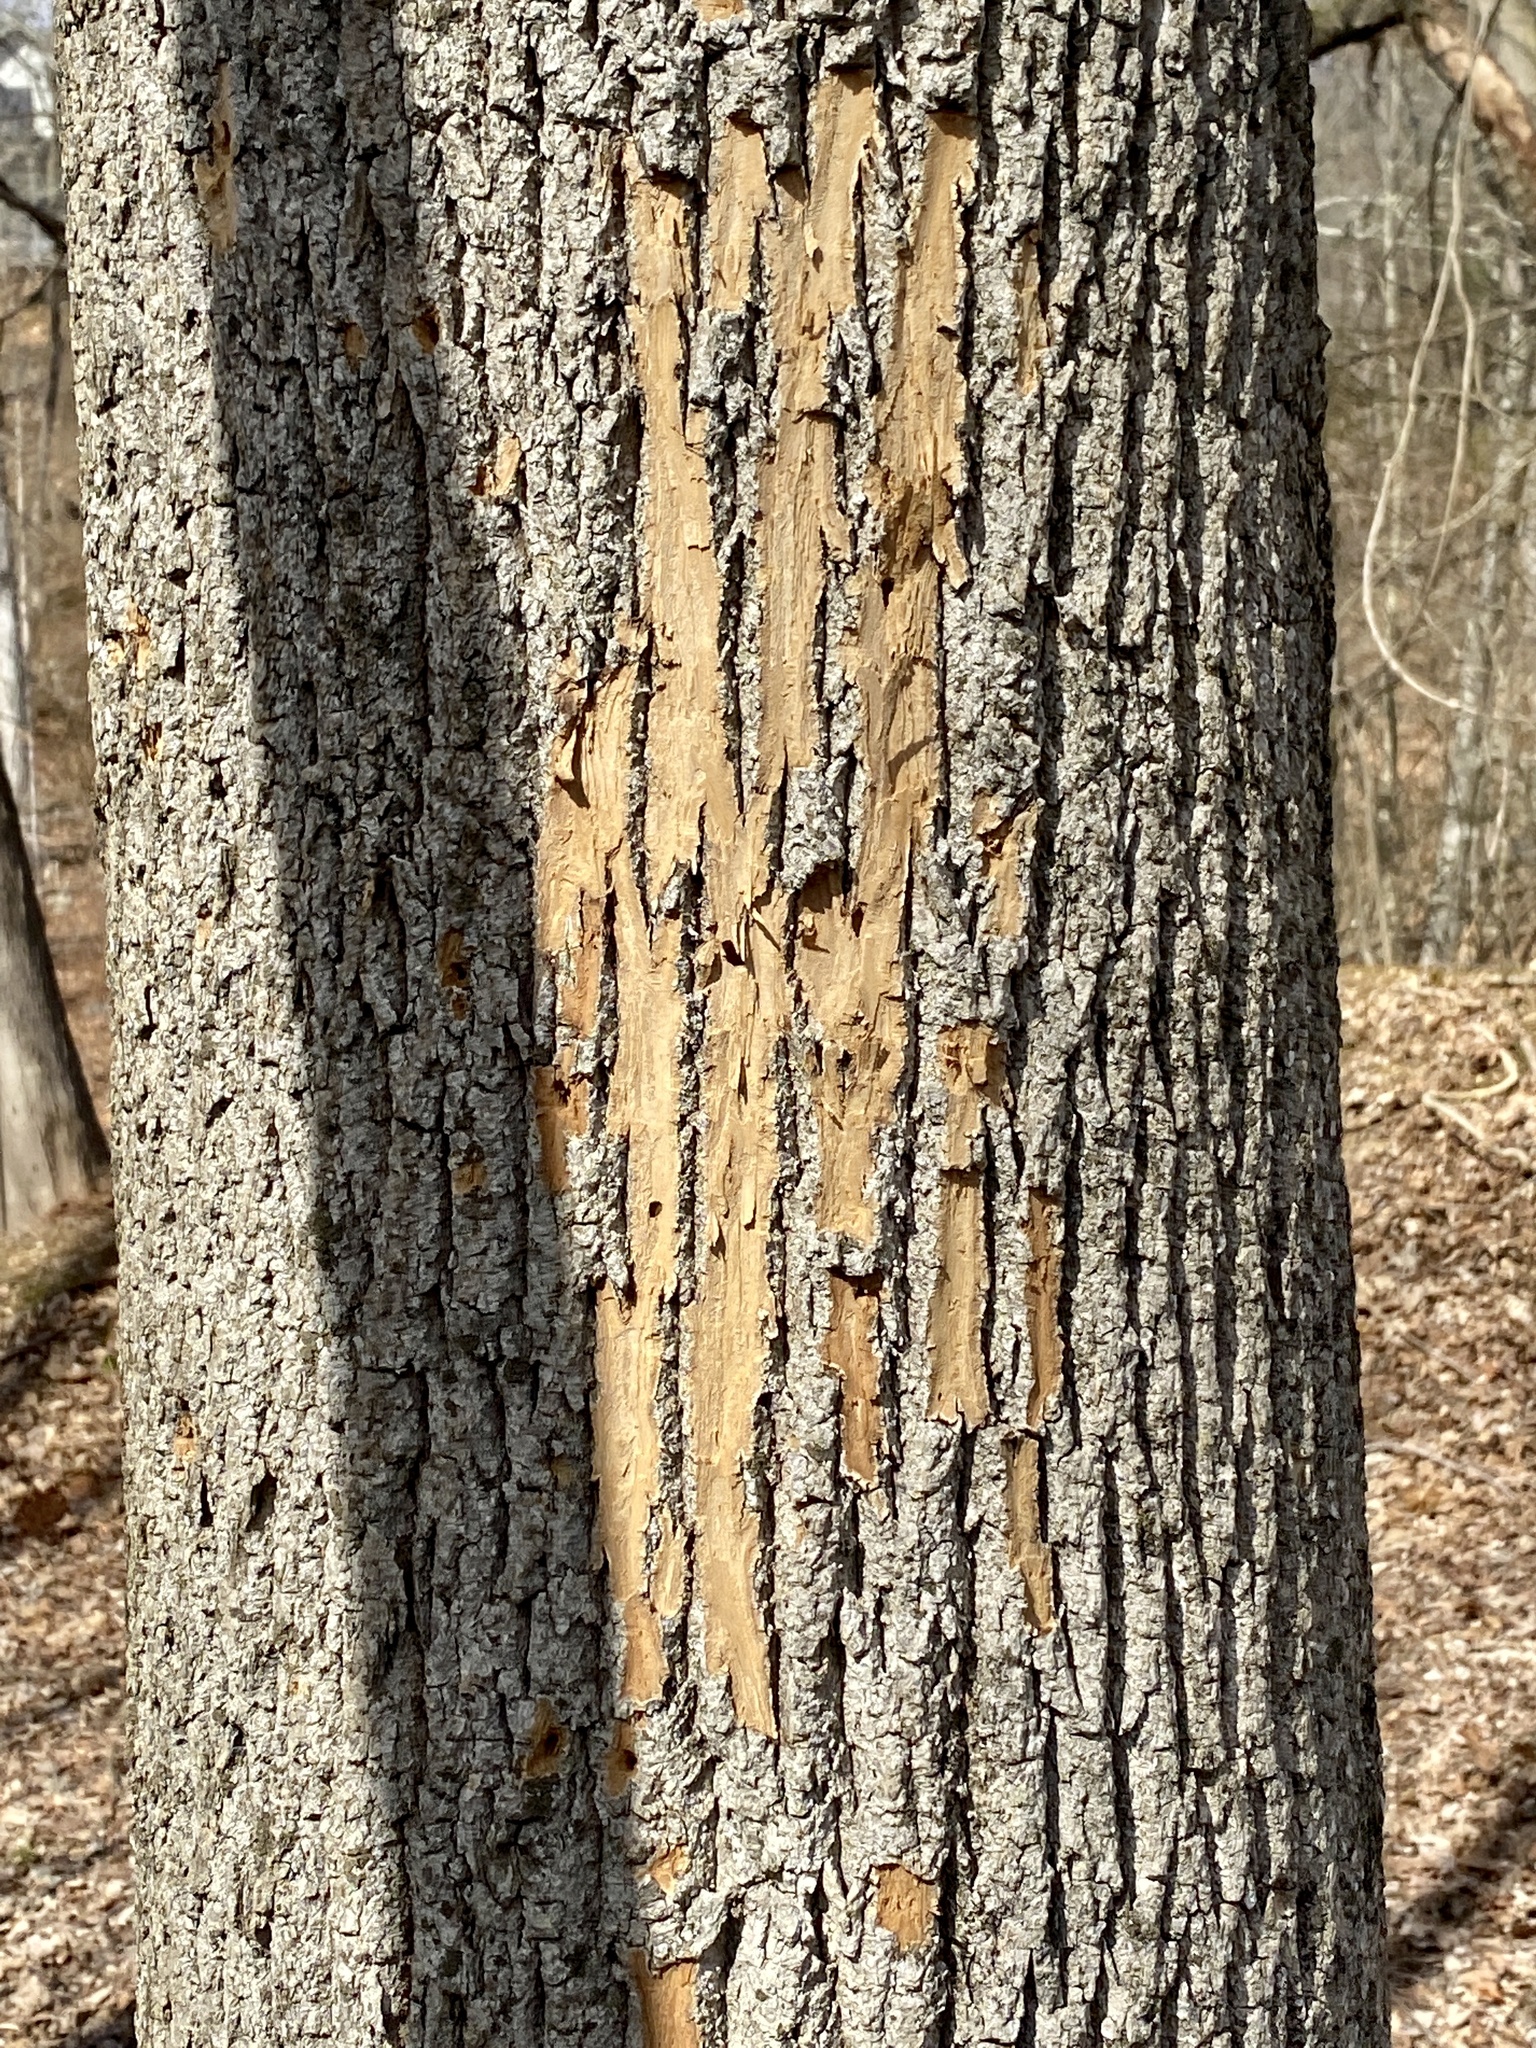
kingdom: Animalia
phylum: Arthropoda
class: Insecta
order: Coleoptera
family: Buprestidae
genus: Agrilus
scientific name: Agrilus planipennis
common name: Emerald ash borer
